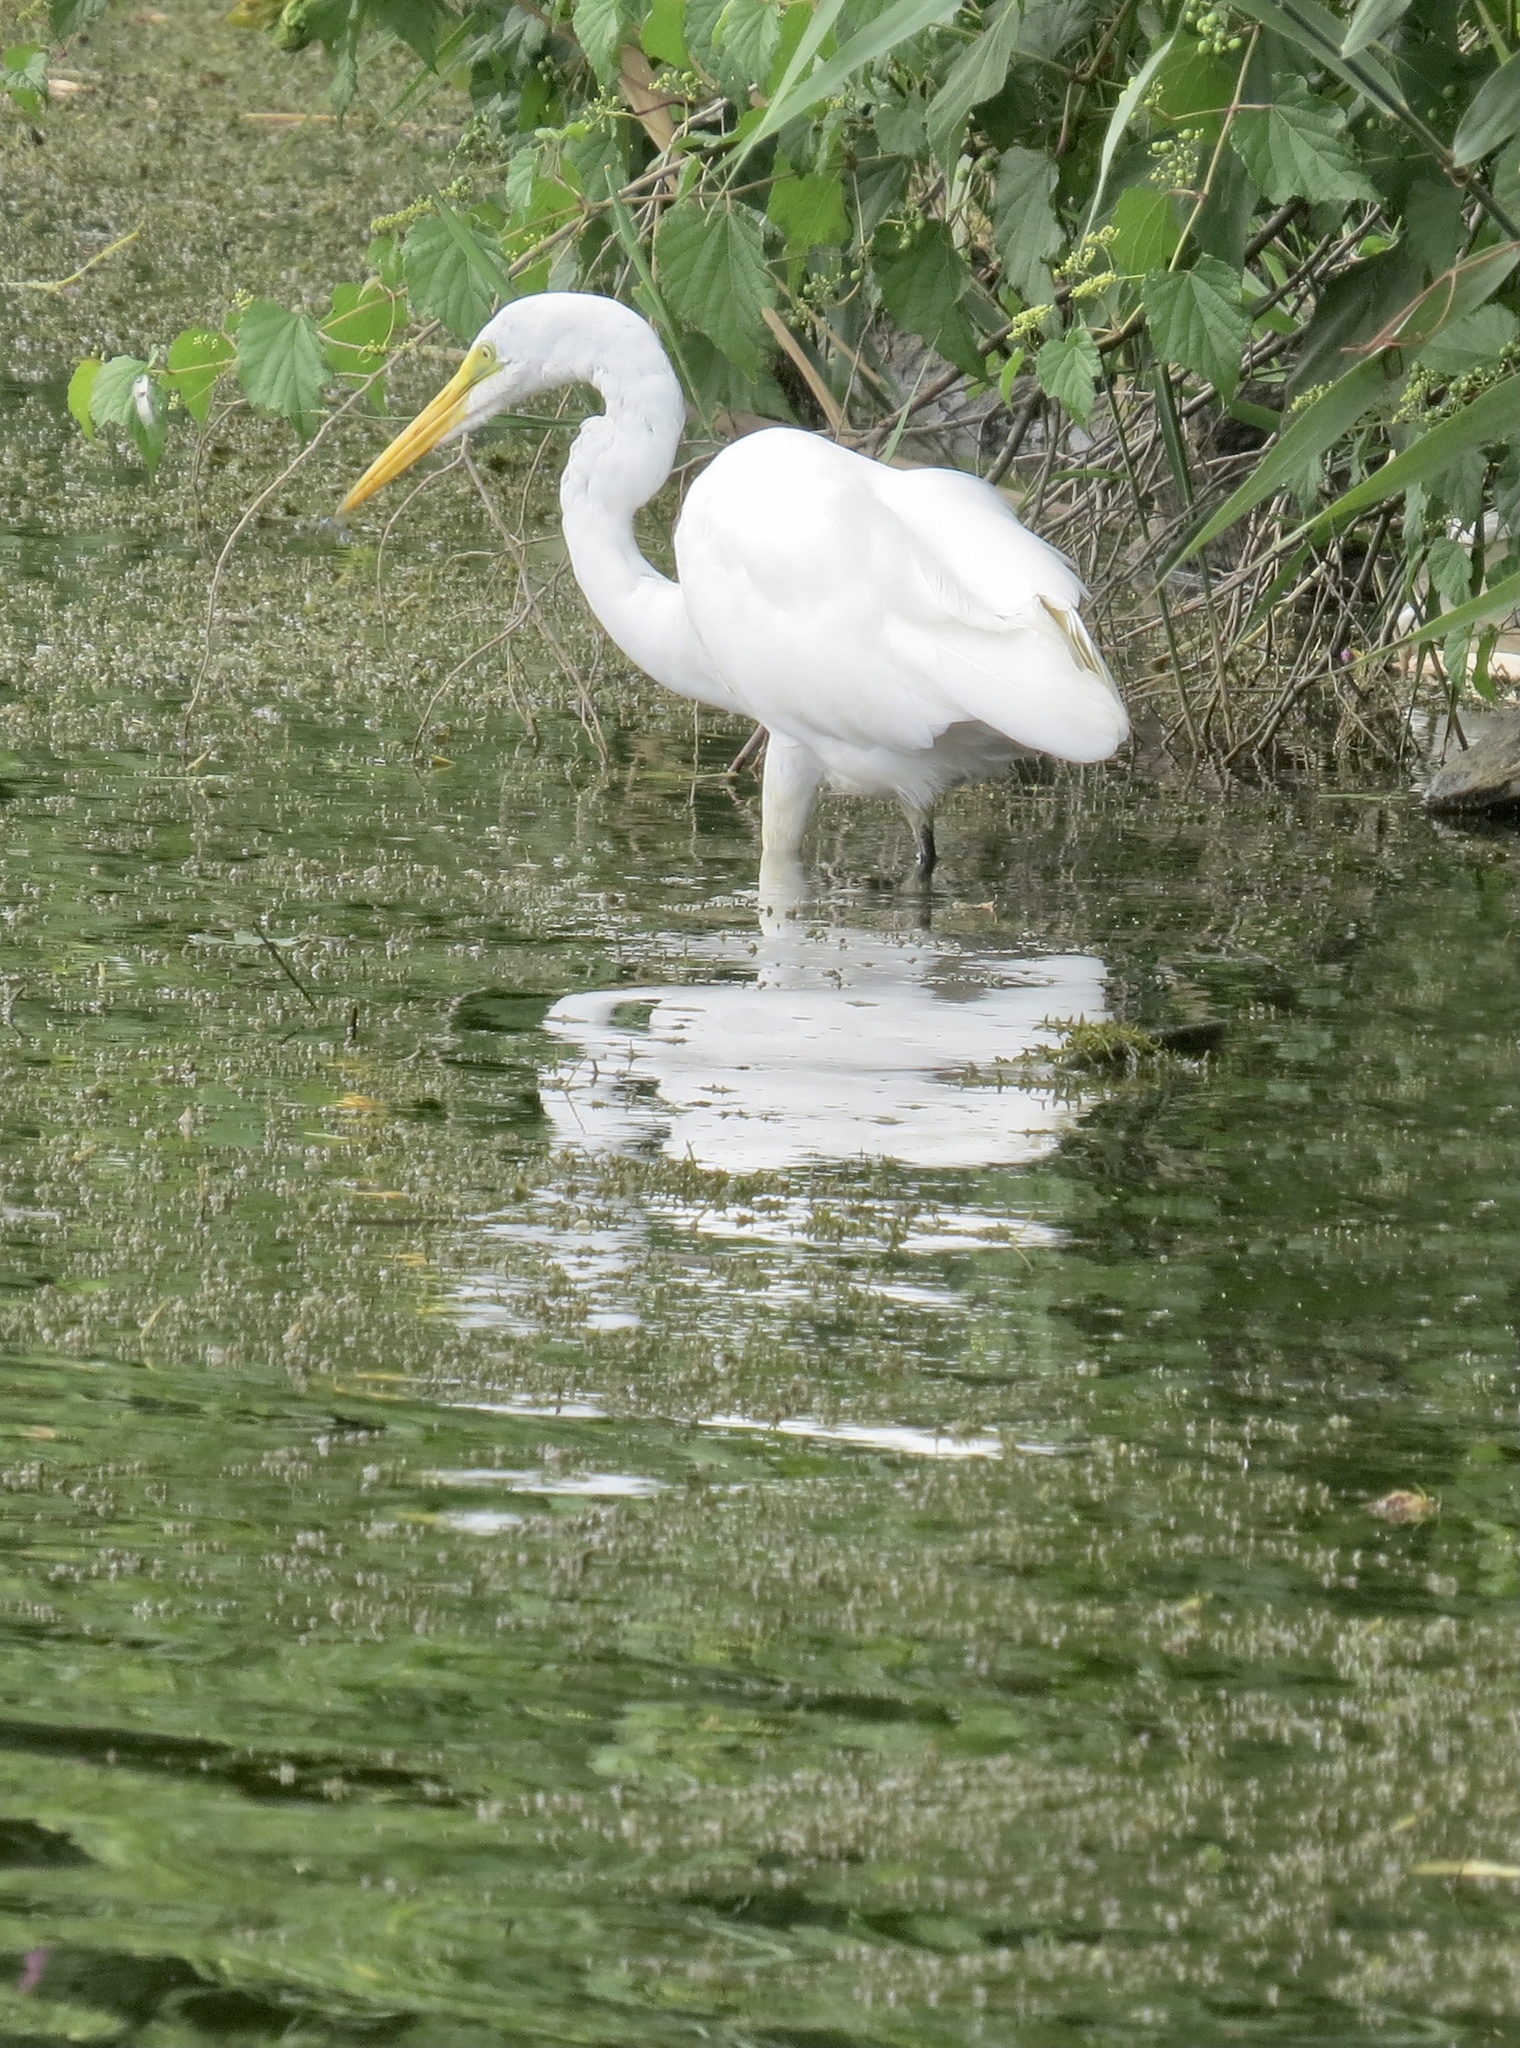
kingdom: Animalia
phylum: Chordata
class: Aves
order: Pelecaniformes
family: Ardeidae
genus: Ardea
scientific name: Ardea alba
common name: Great egret
